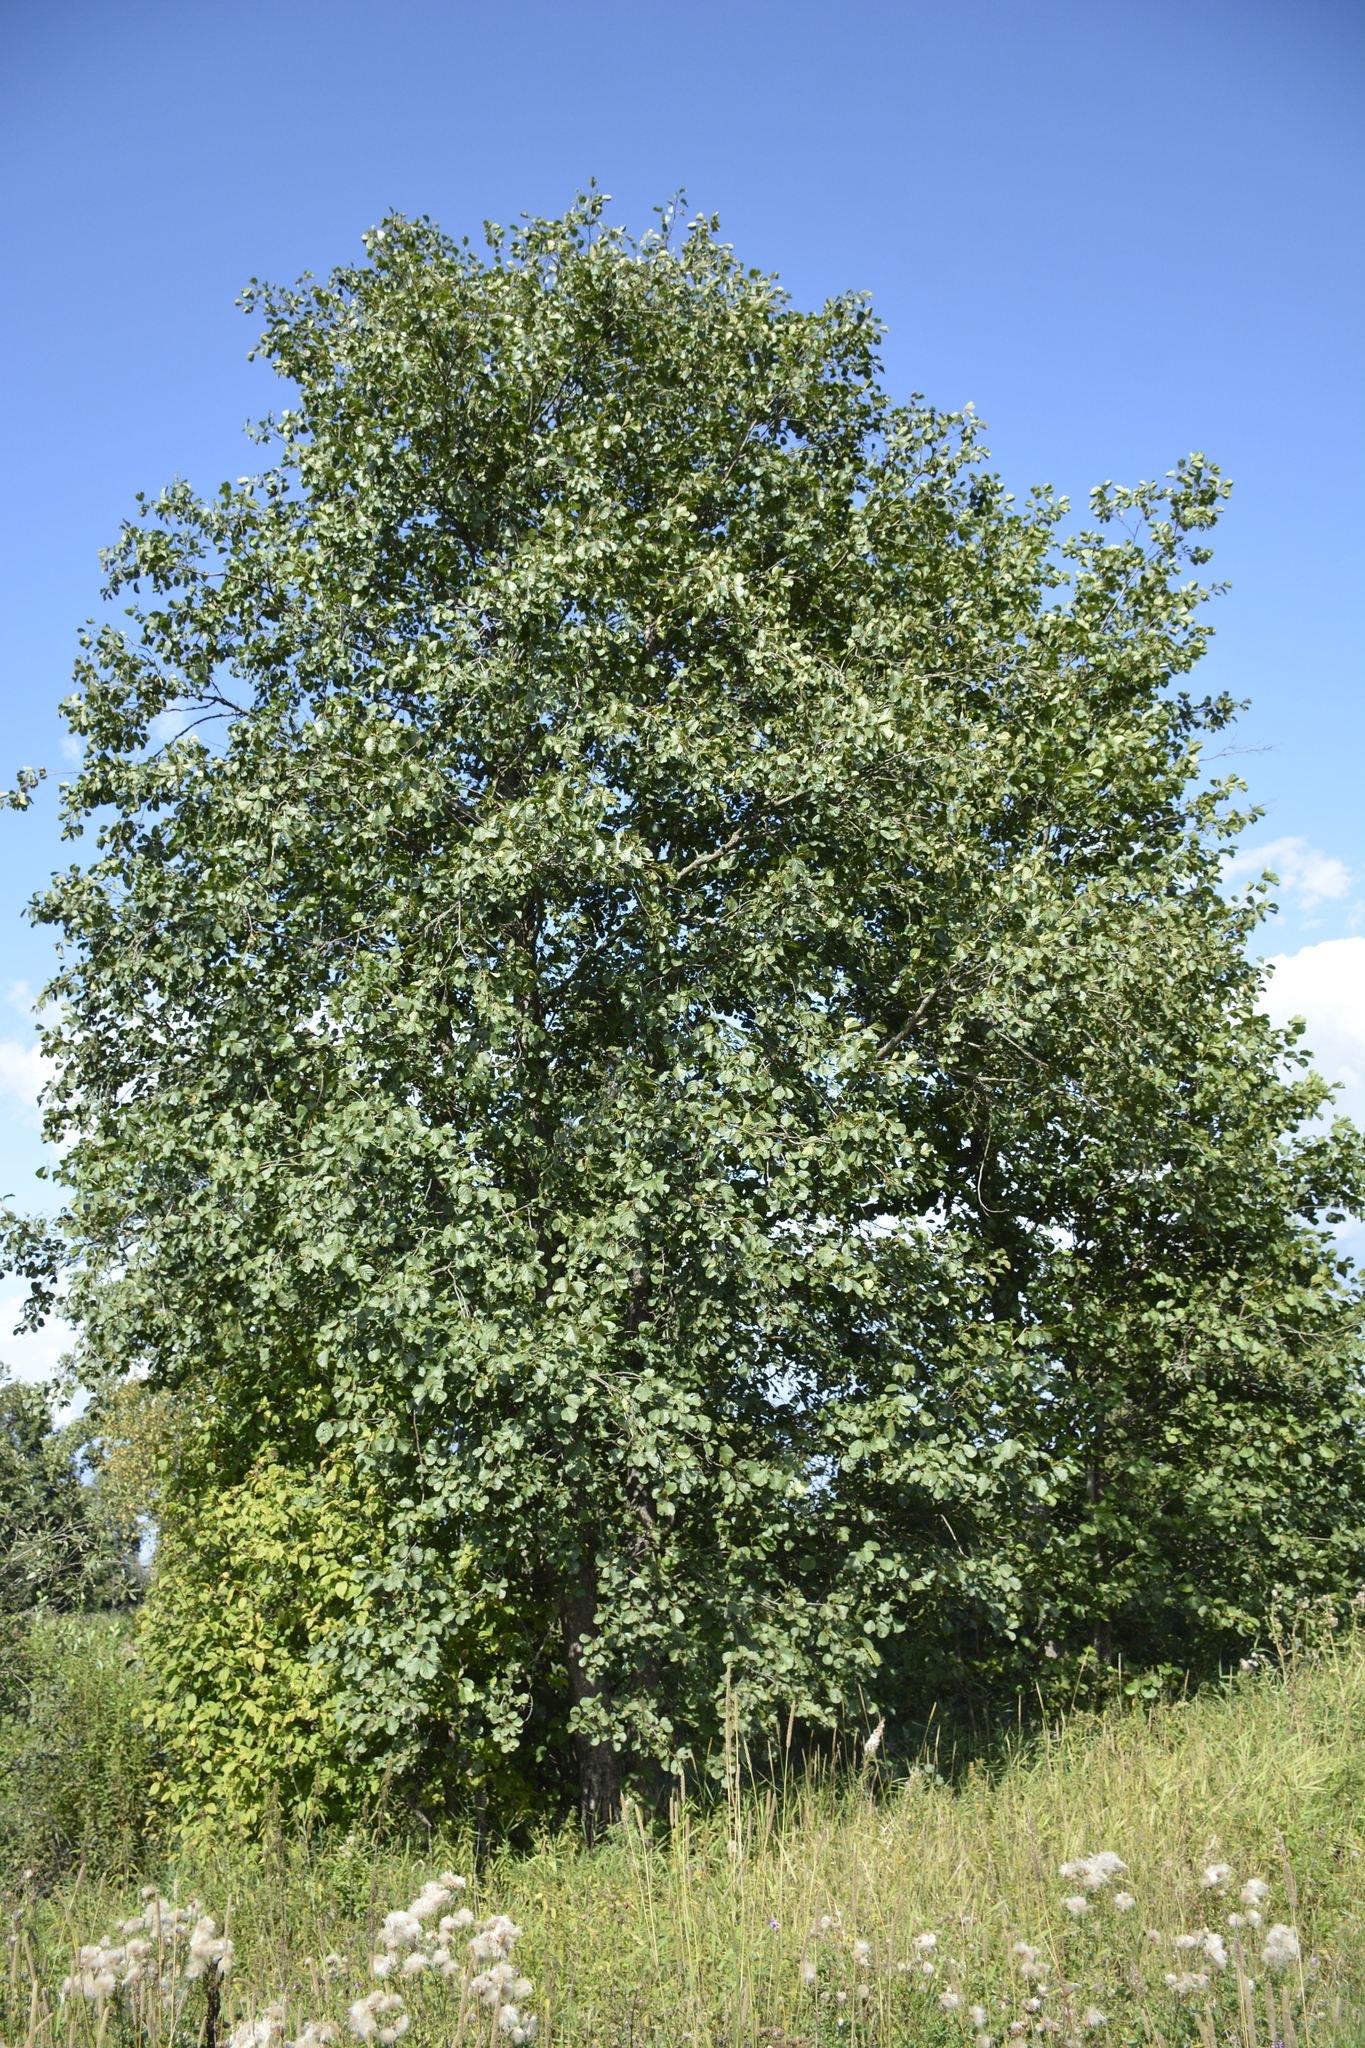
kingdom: Plantae
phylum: Tracheophyta
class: Magnoliopsida
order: Fagales
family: Betulaceae
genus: Alnus
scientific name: Alnus glutinosa
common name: Black alder
